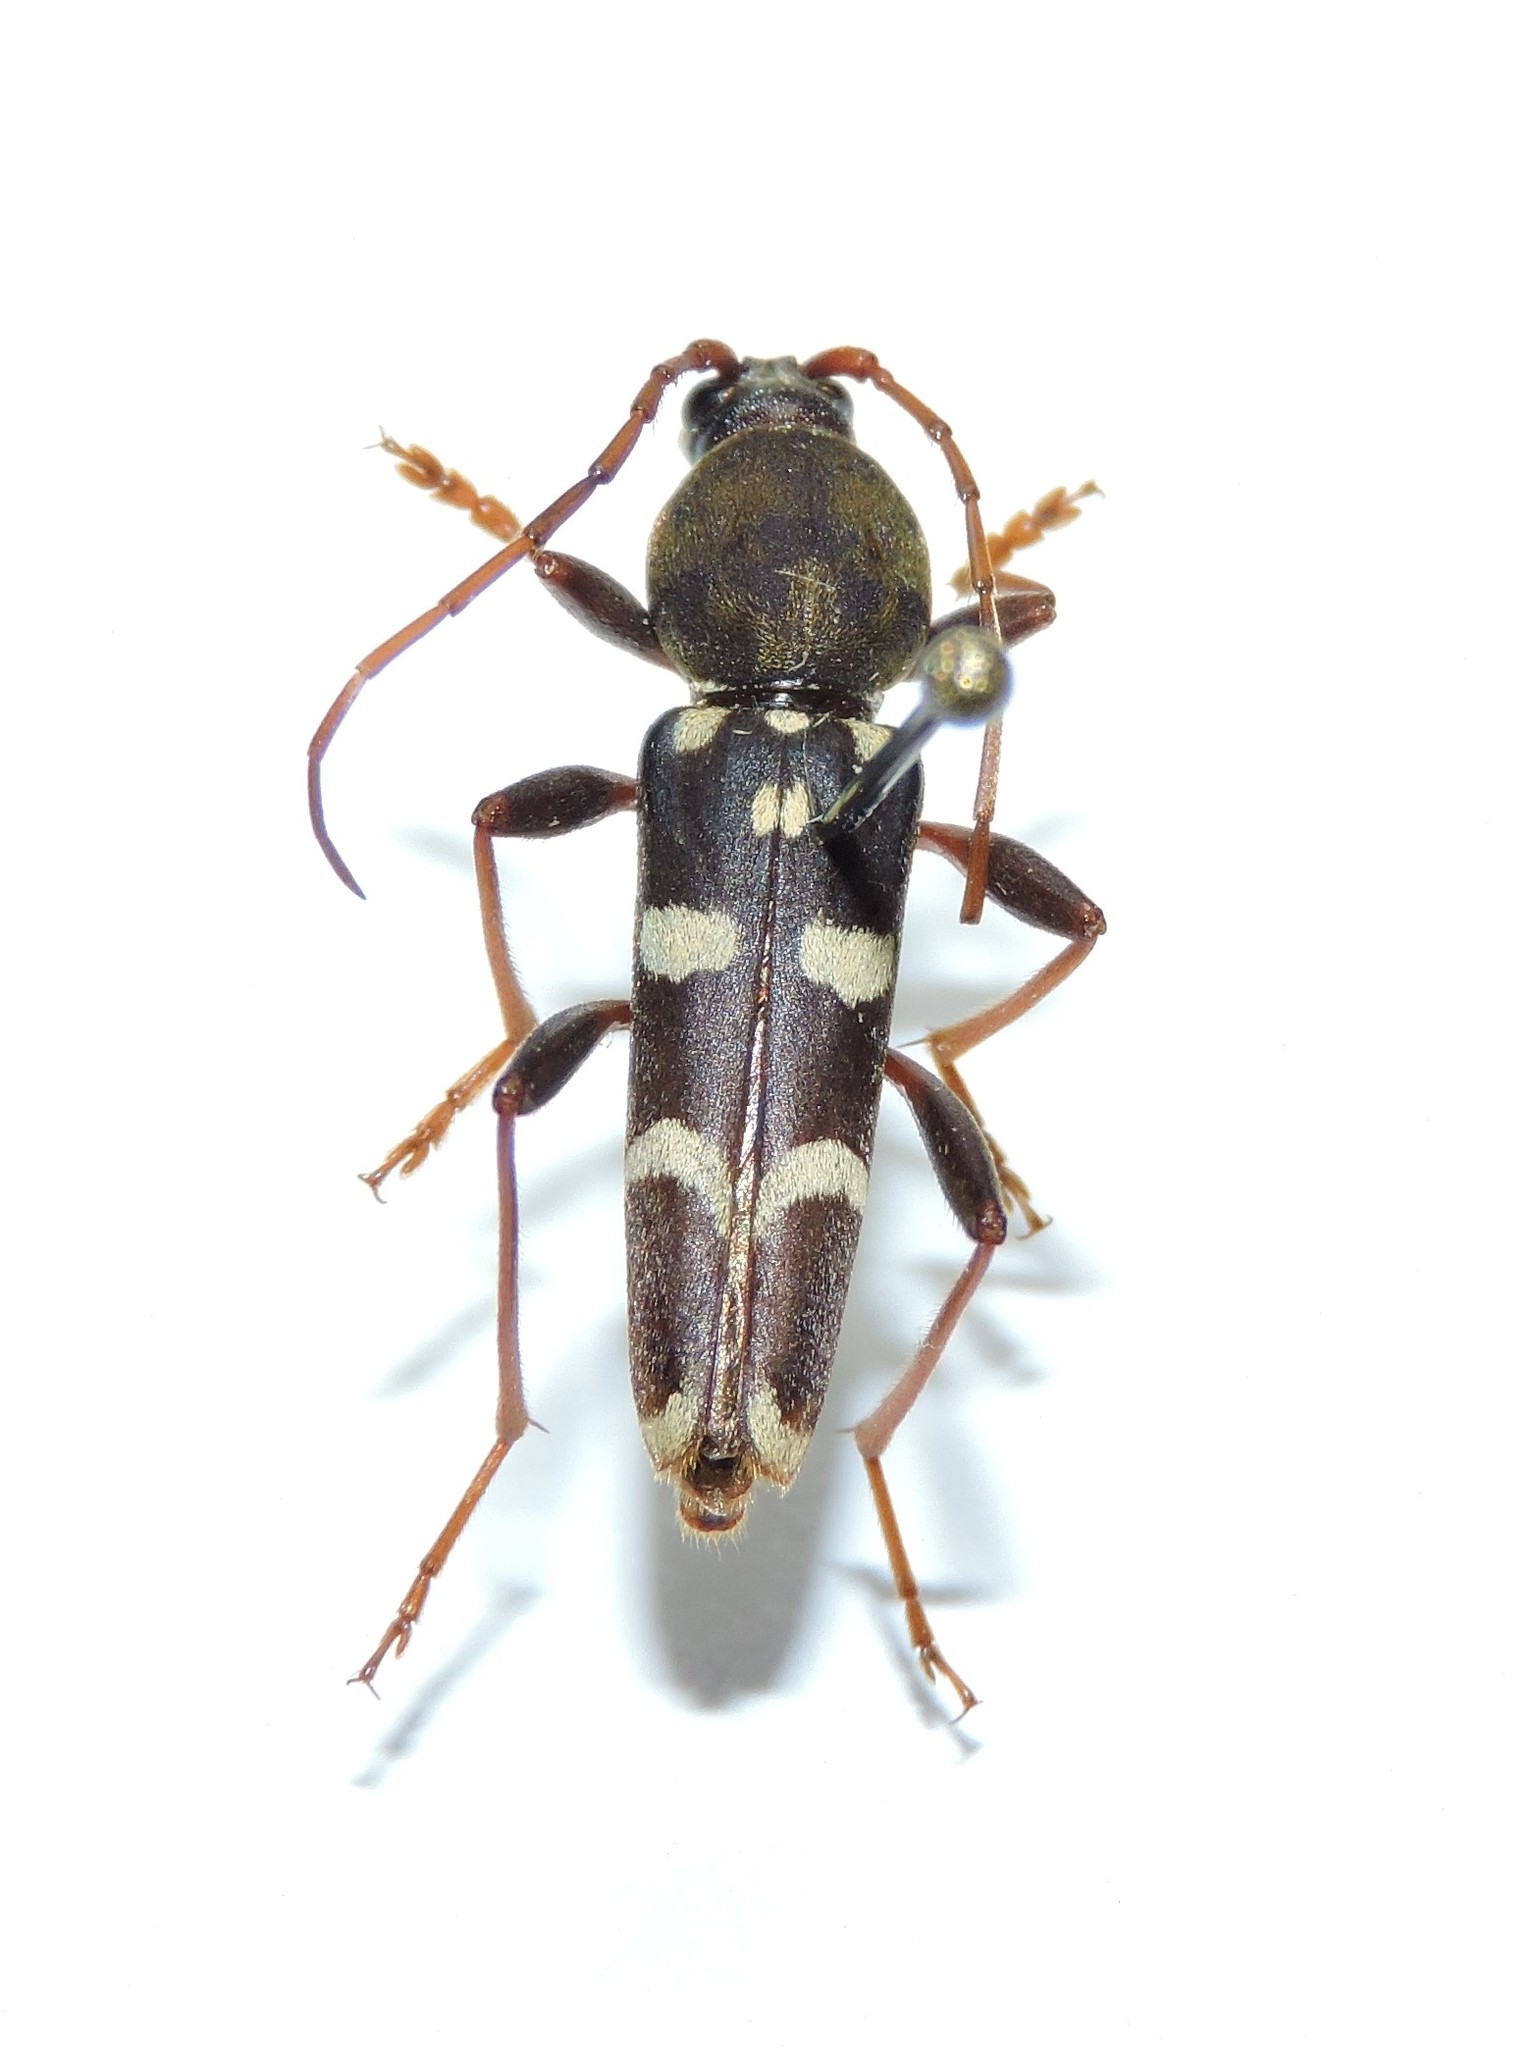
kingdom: Animalia
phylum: Arthropoda
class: Insecta
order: Coleoptera
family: Cerambycidae
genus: Isotomus
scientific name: Isotomus speciosus
